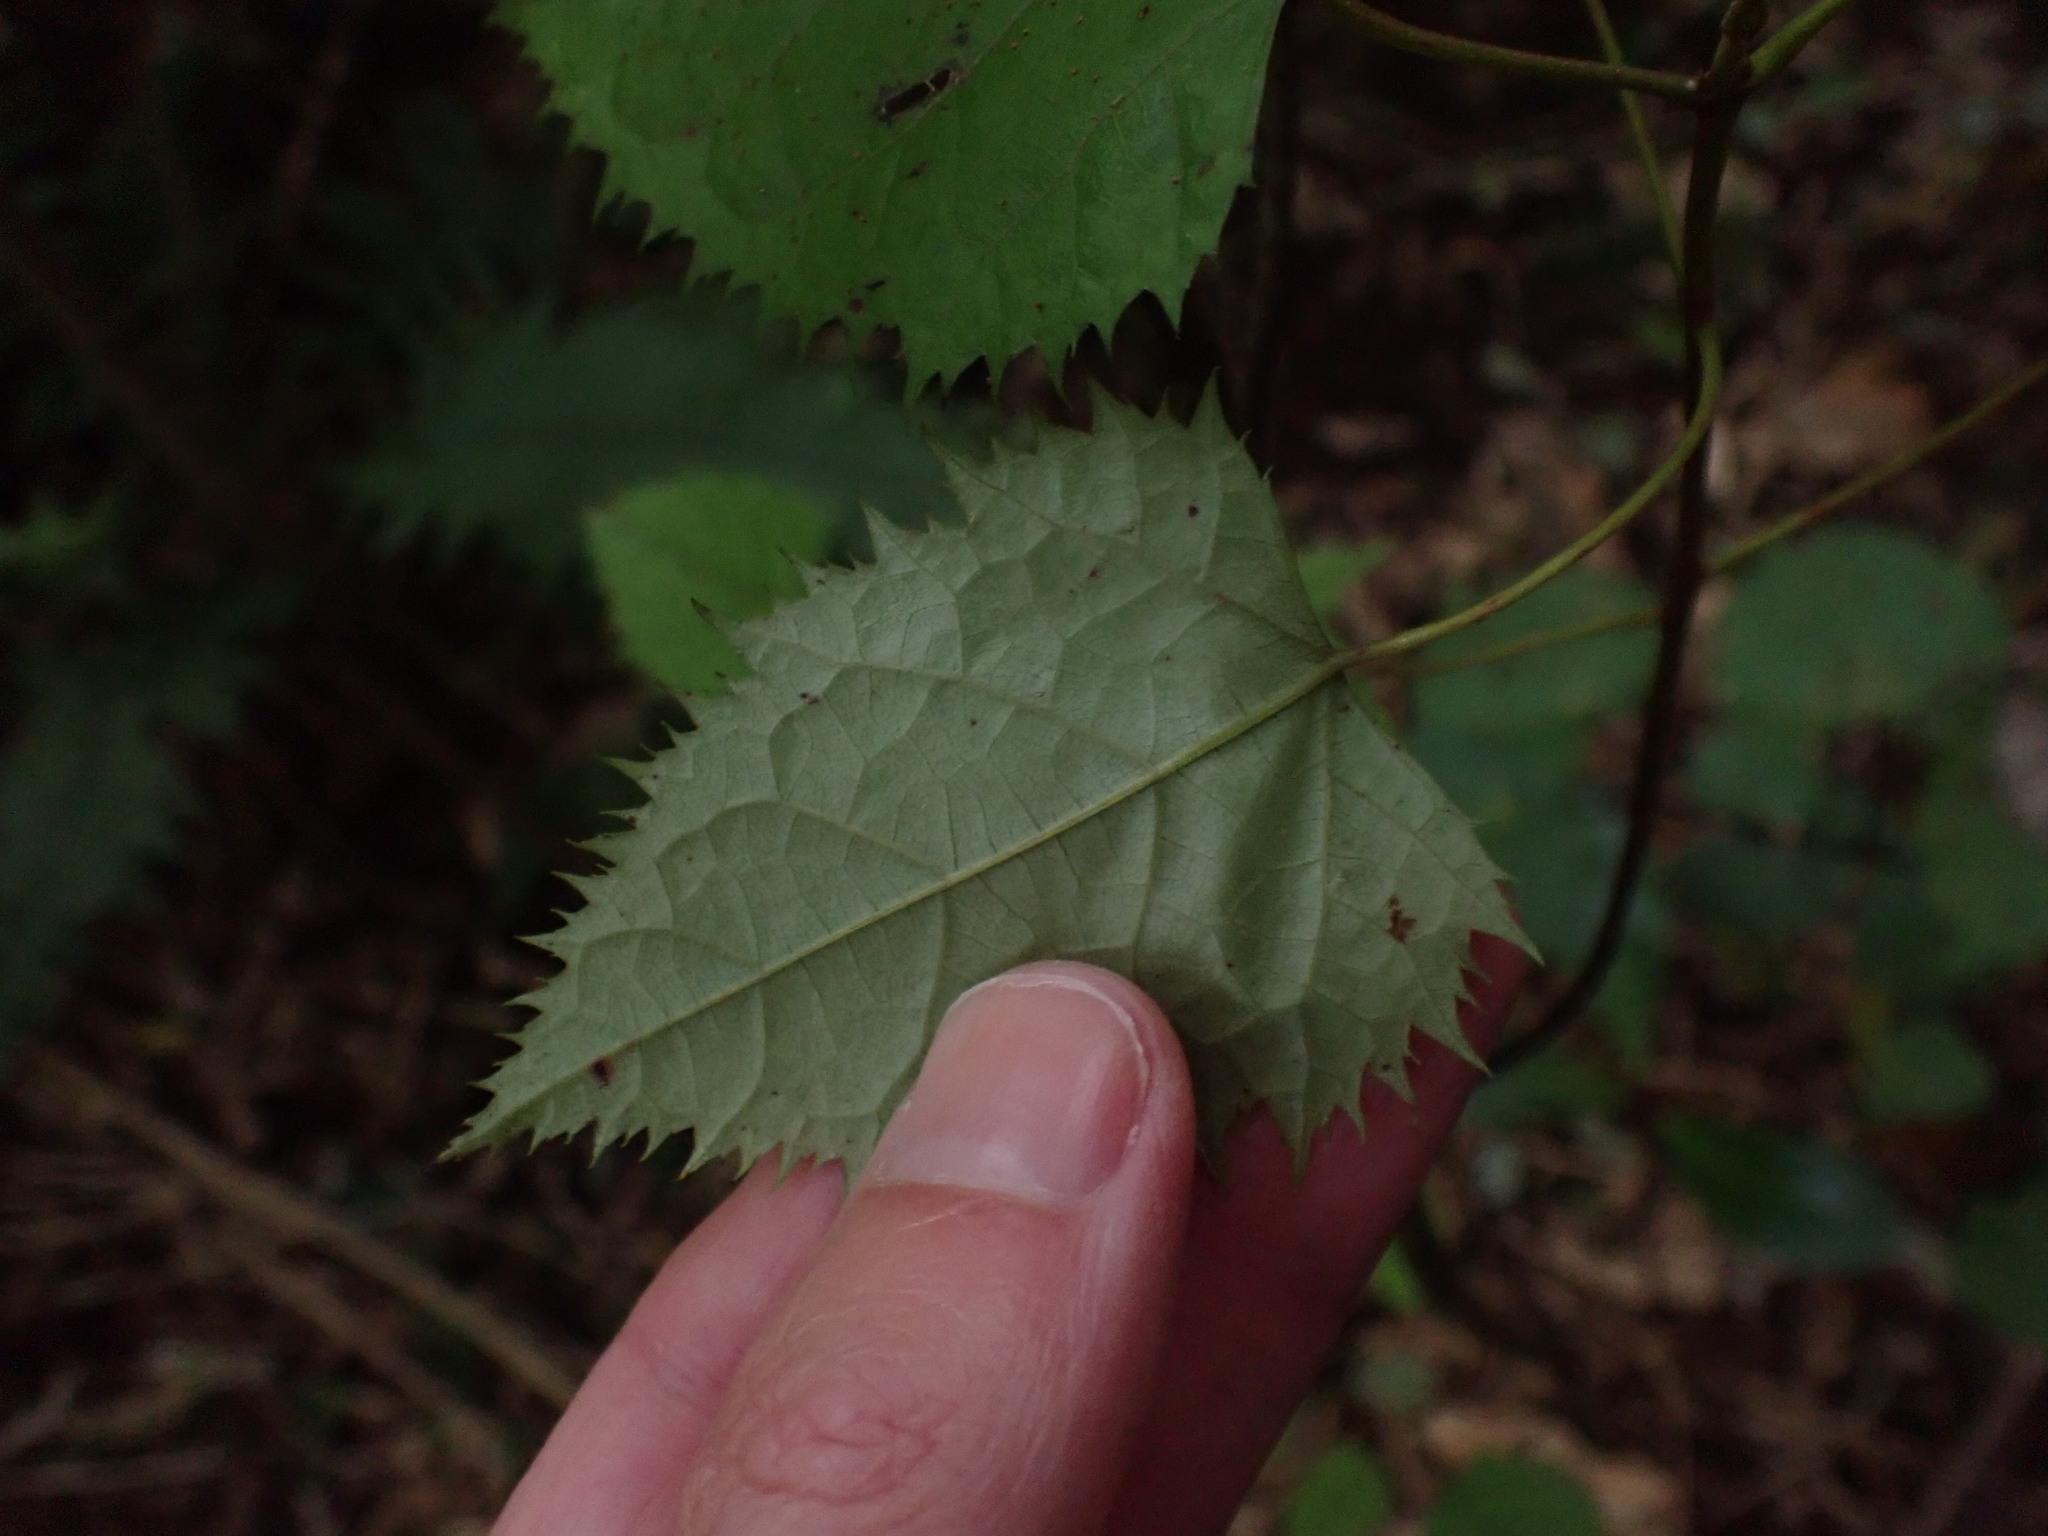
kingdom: Plantae
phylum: Tracheophyta
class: Magnoliopsida
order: Oxalidales
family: Elaeocarpaceae
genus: Aristotelia
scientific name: Aristotelia serrata
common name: New zealand wineberry
